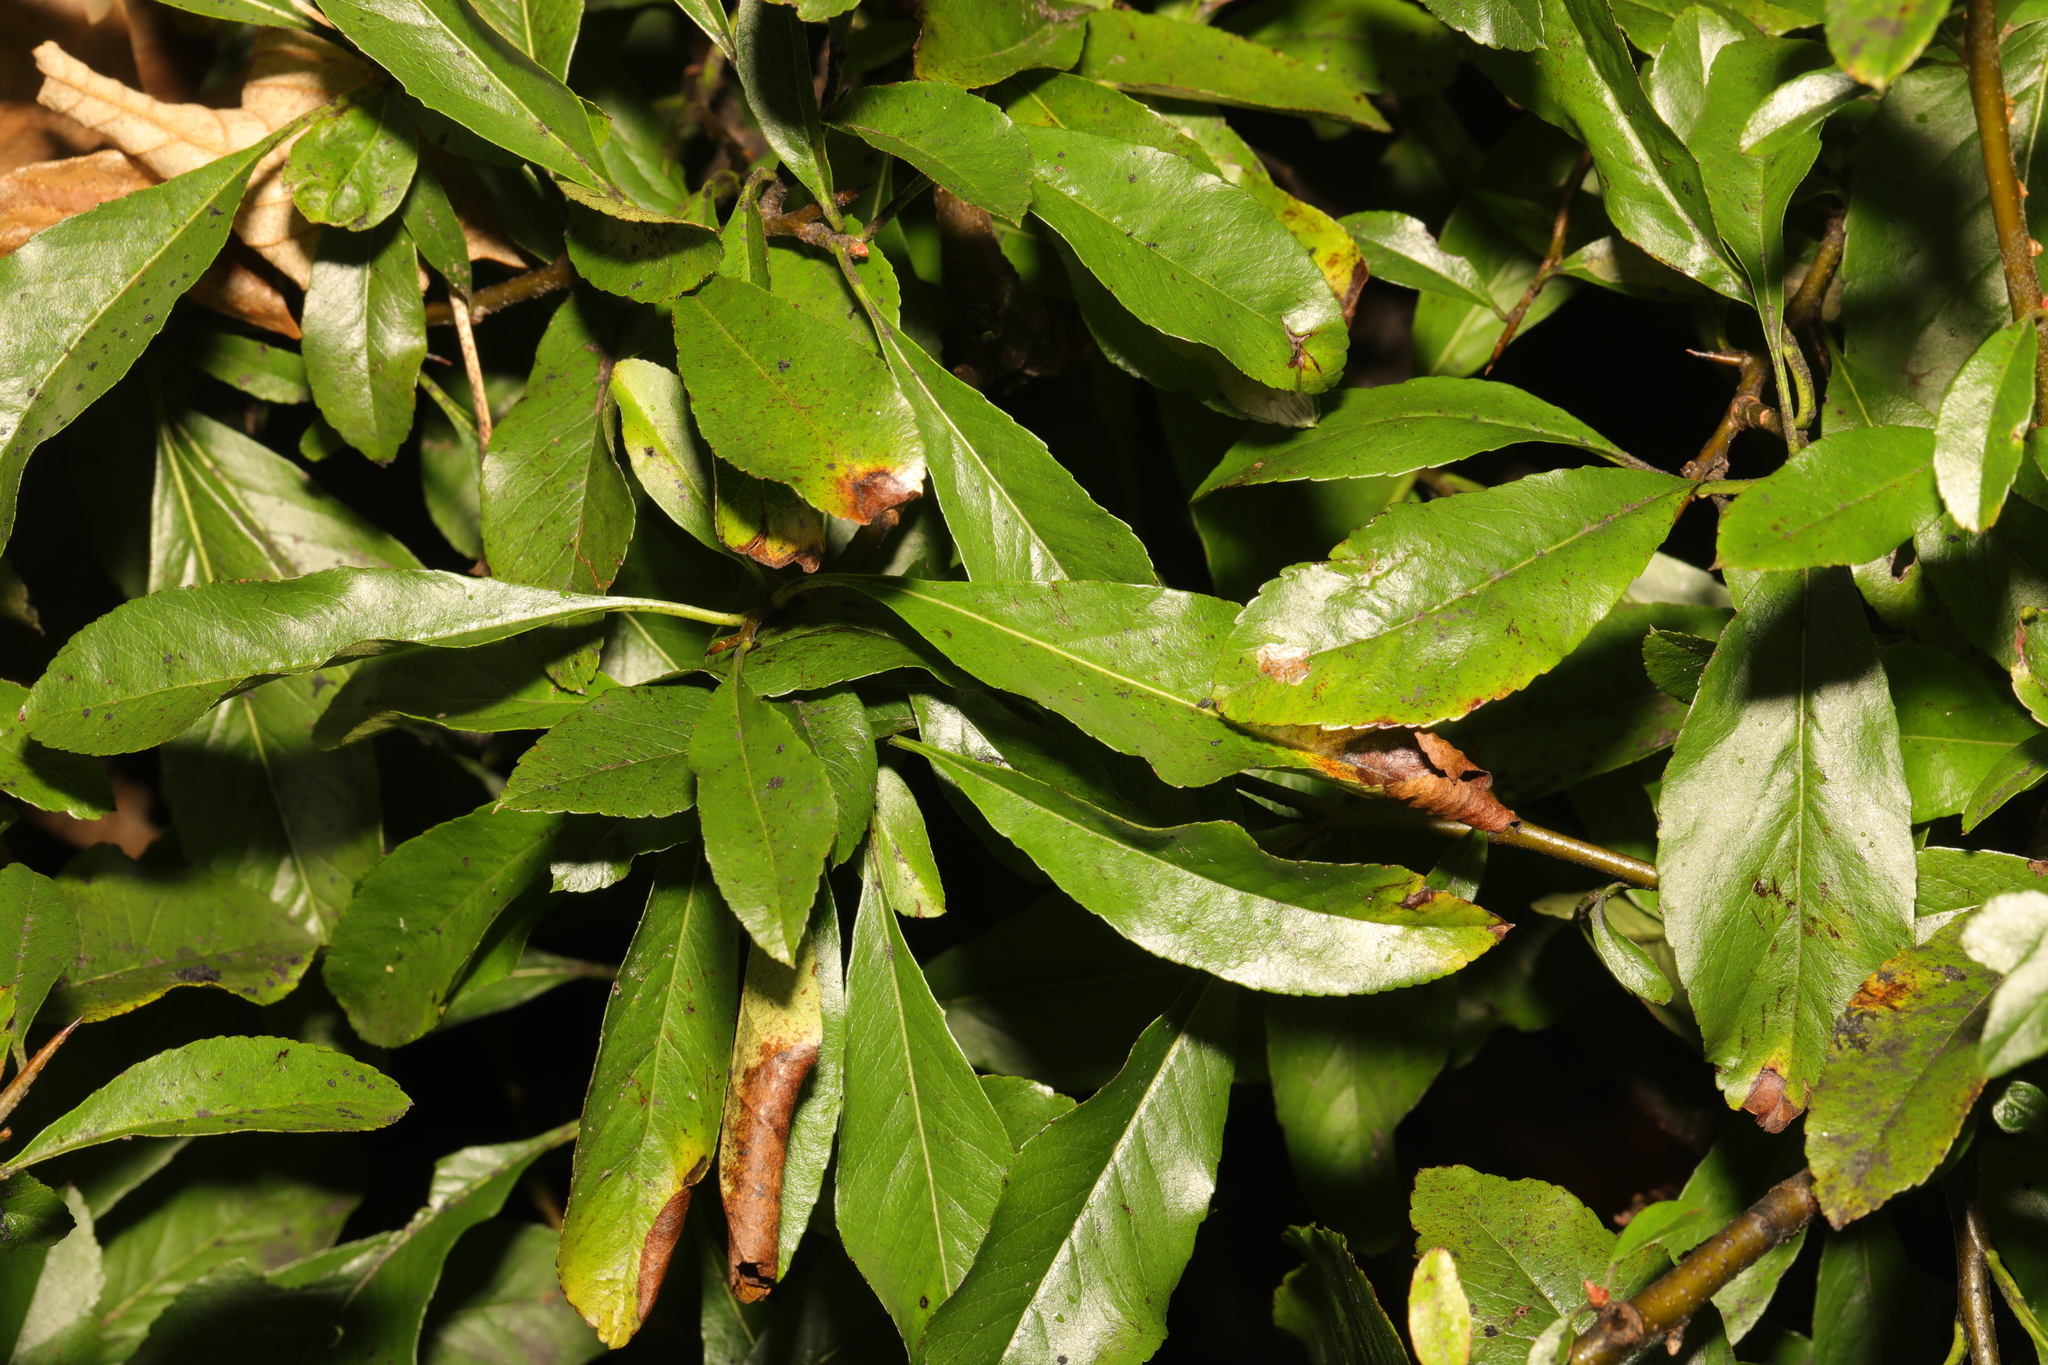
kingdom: Plantae
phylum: Tracheophyta
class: Magnoliopsida
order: Rosales
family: Rosaceae
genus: Pyracantha
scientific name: Pyracantha coccinea
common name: Firethorn
